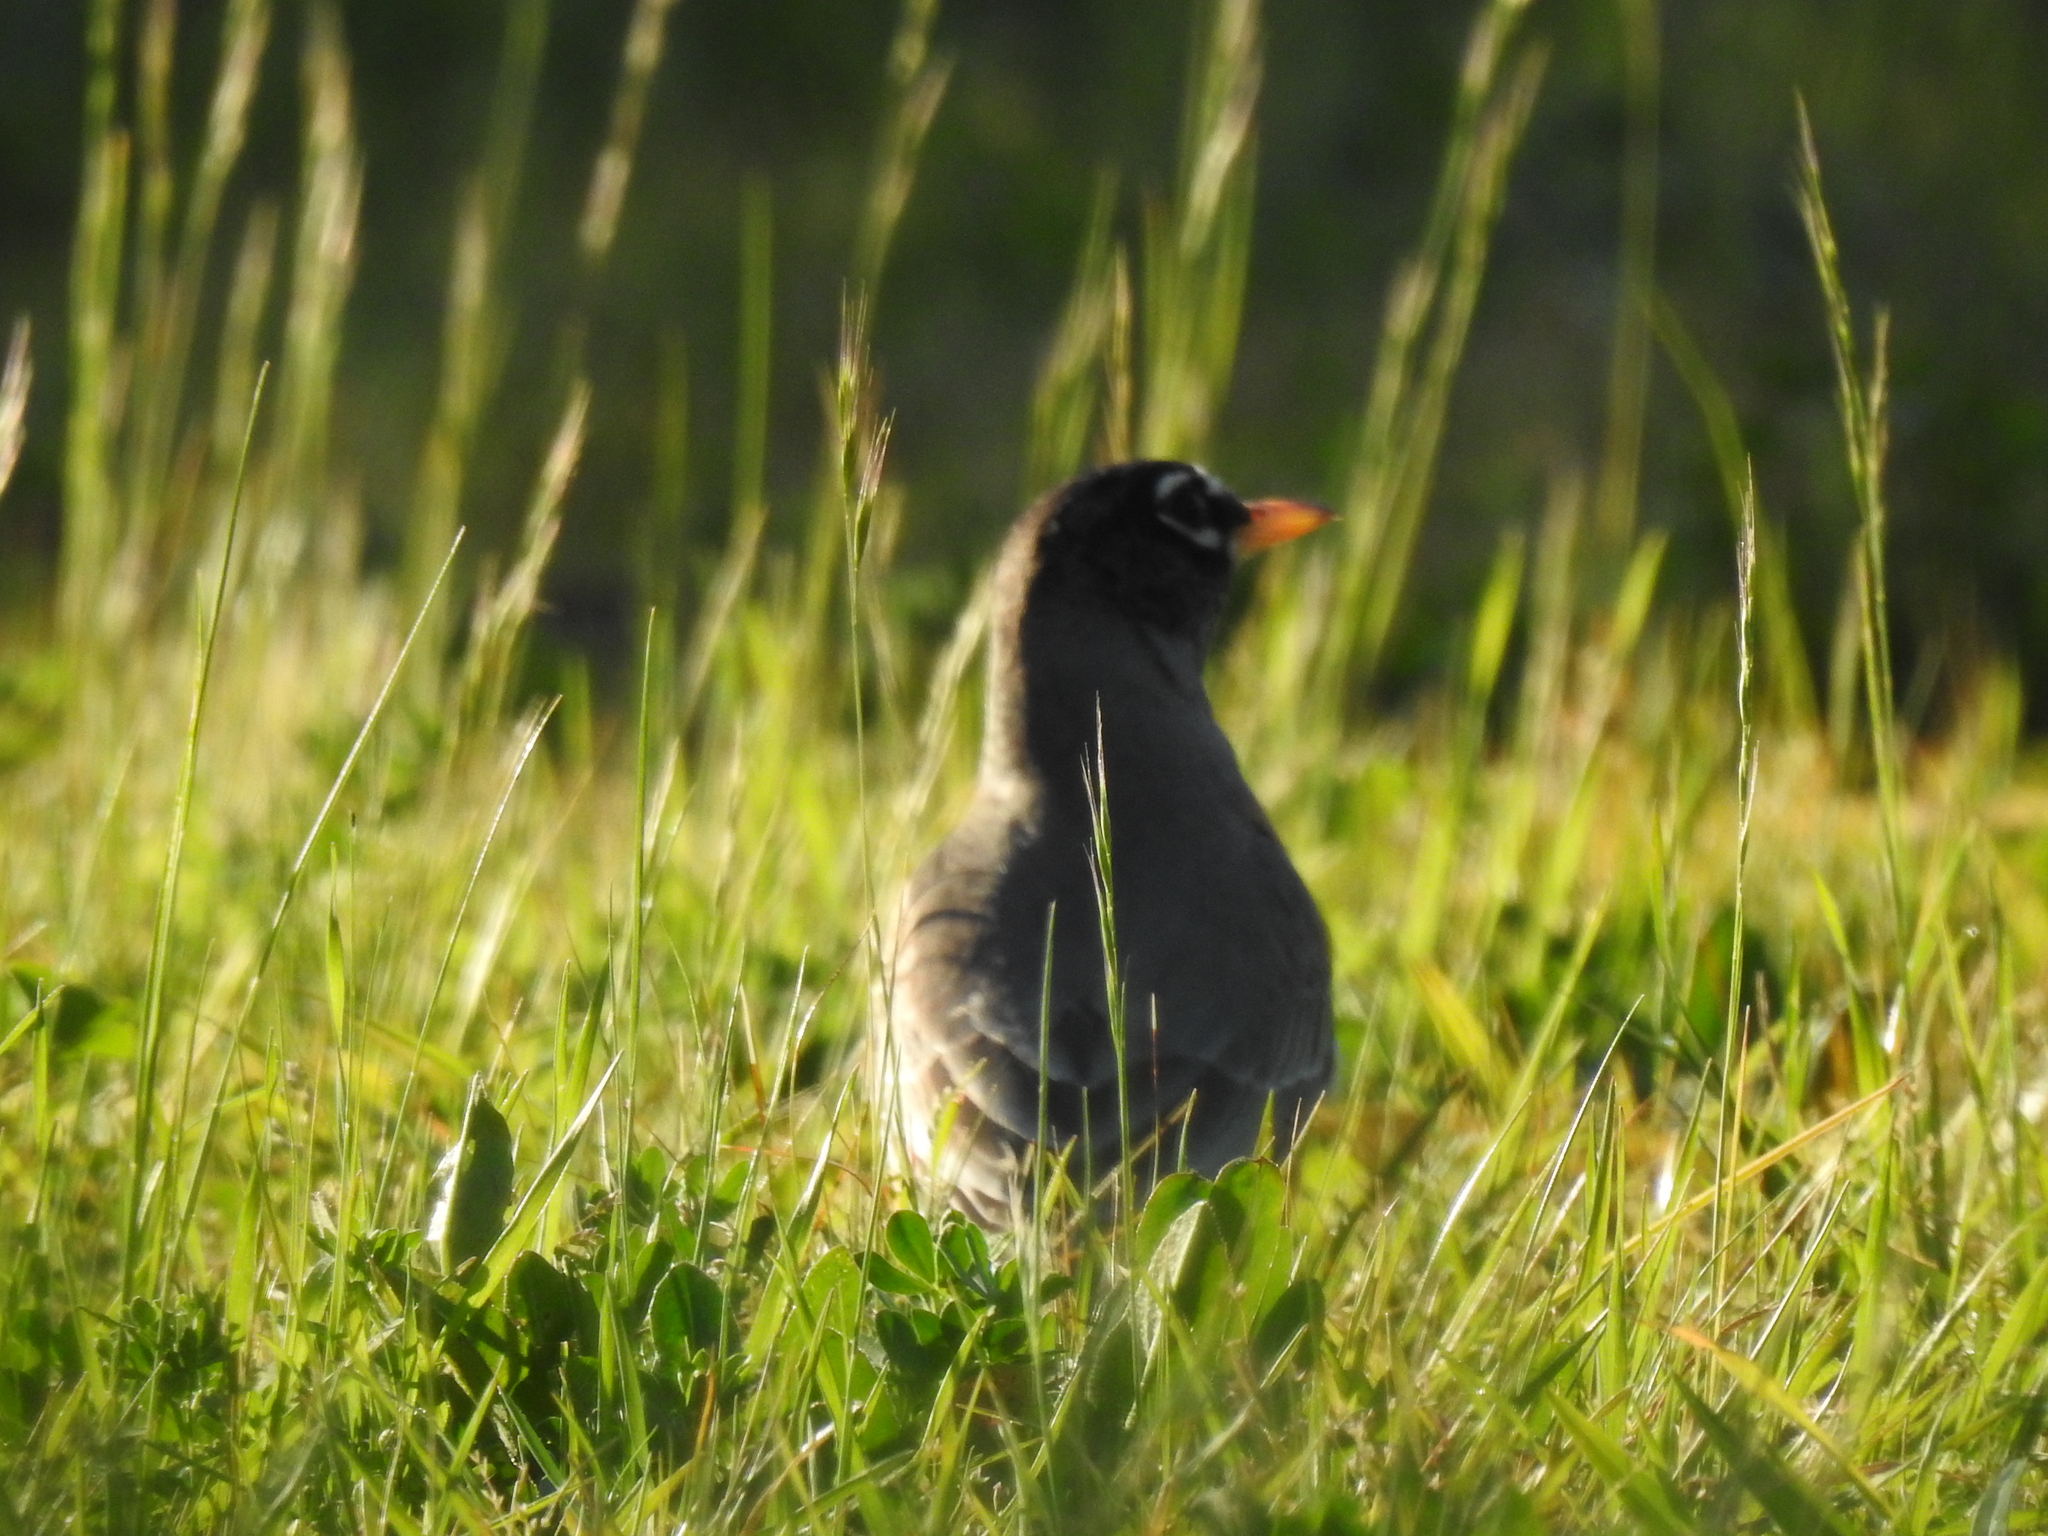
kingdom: Animalia
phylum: Chordata
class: Aves
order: Passeriformes
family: Turdidae
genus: Turdus
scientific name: Turdus migratorius
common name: American robin
